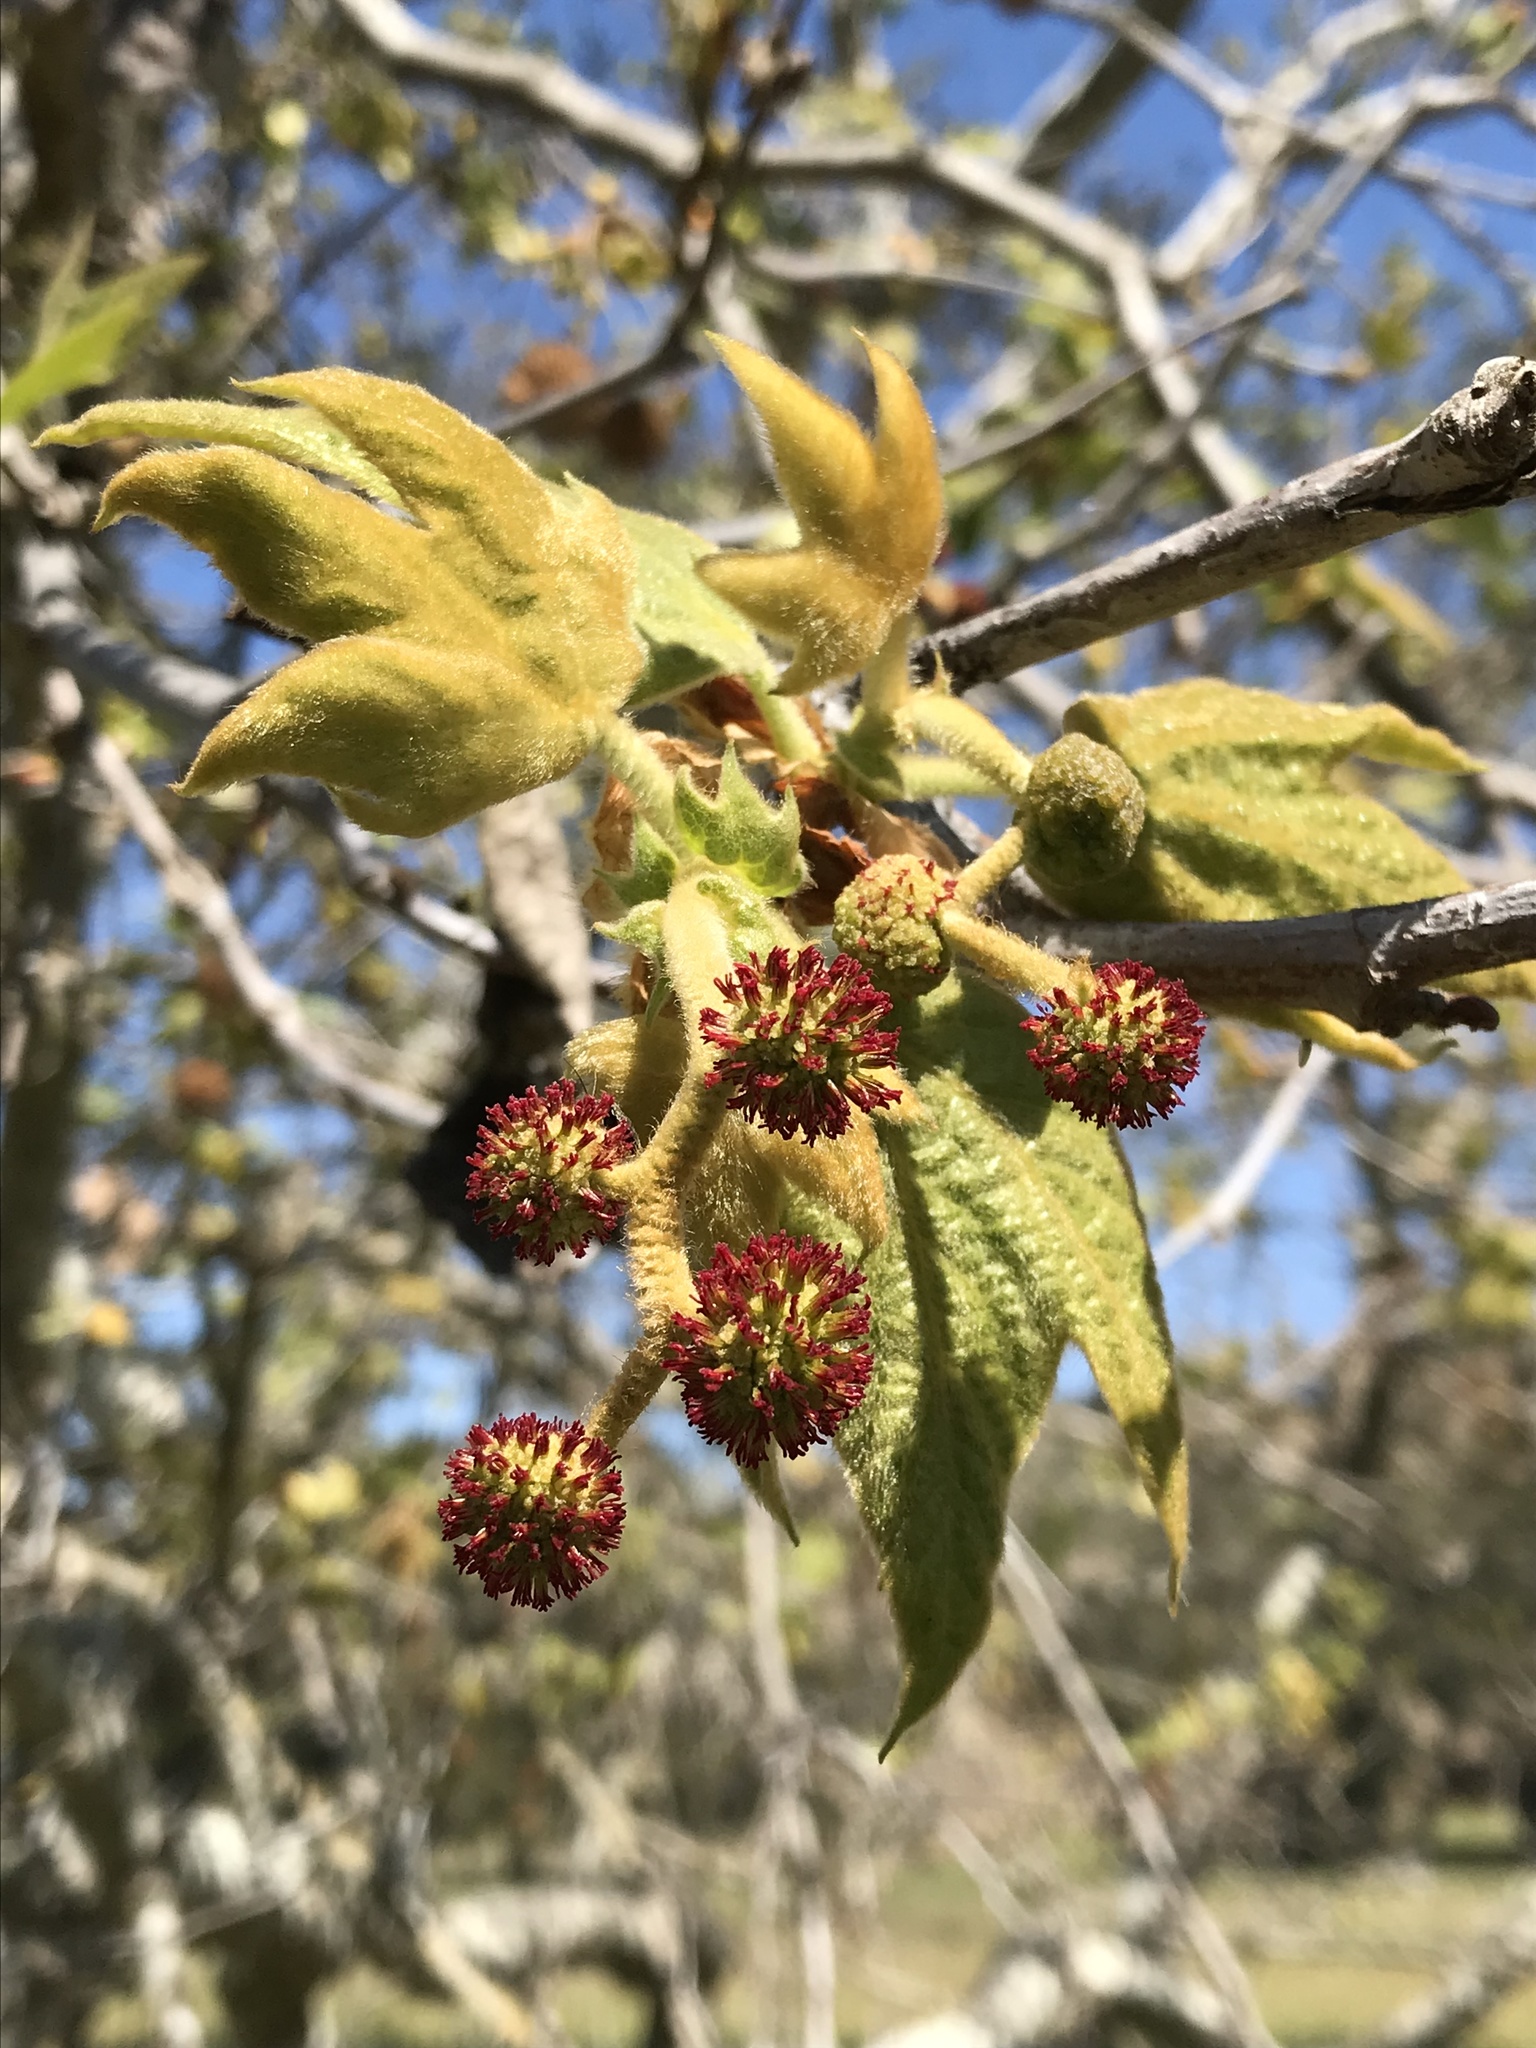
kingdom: Plantae
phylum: Tracheophyta
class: Magnoliopsida
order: Proteales
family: Platanaceae
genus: Platanus
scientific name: Platanus racemosa
